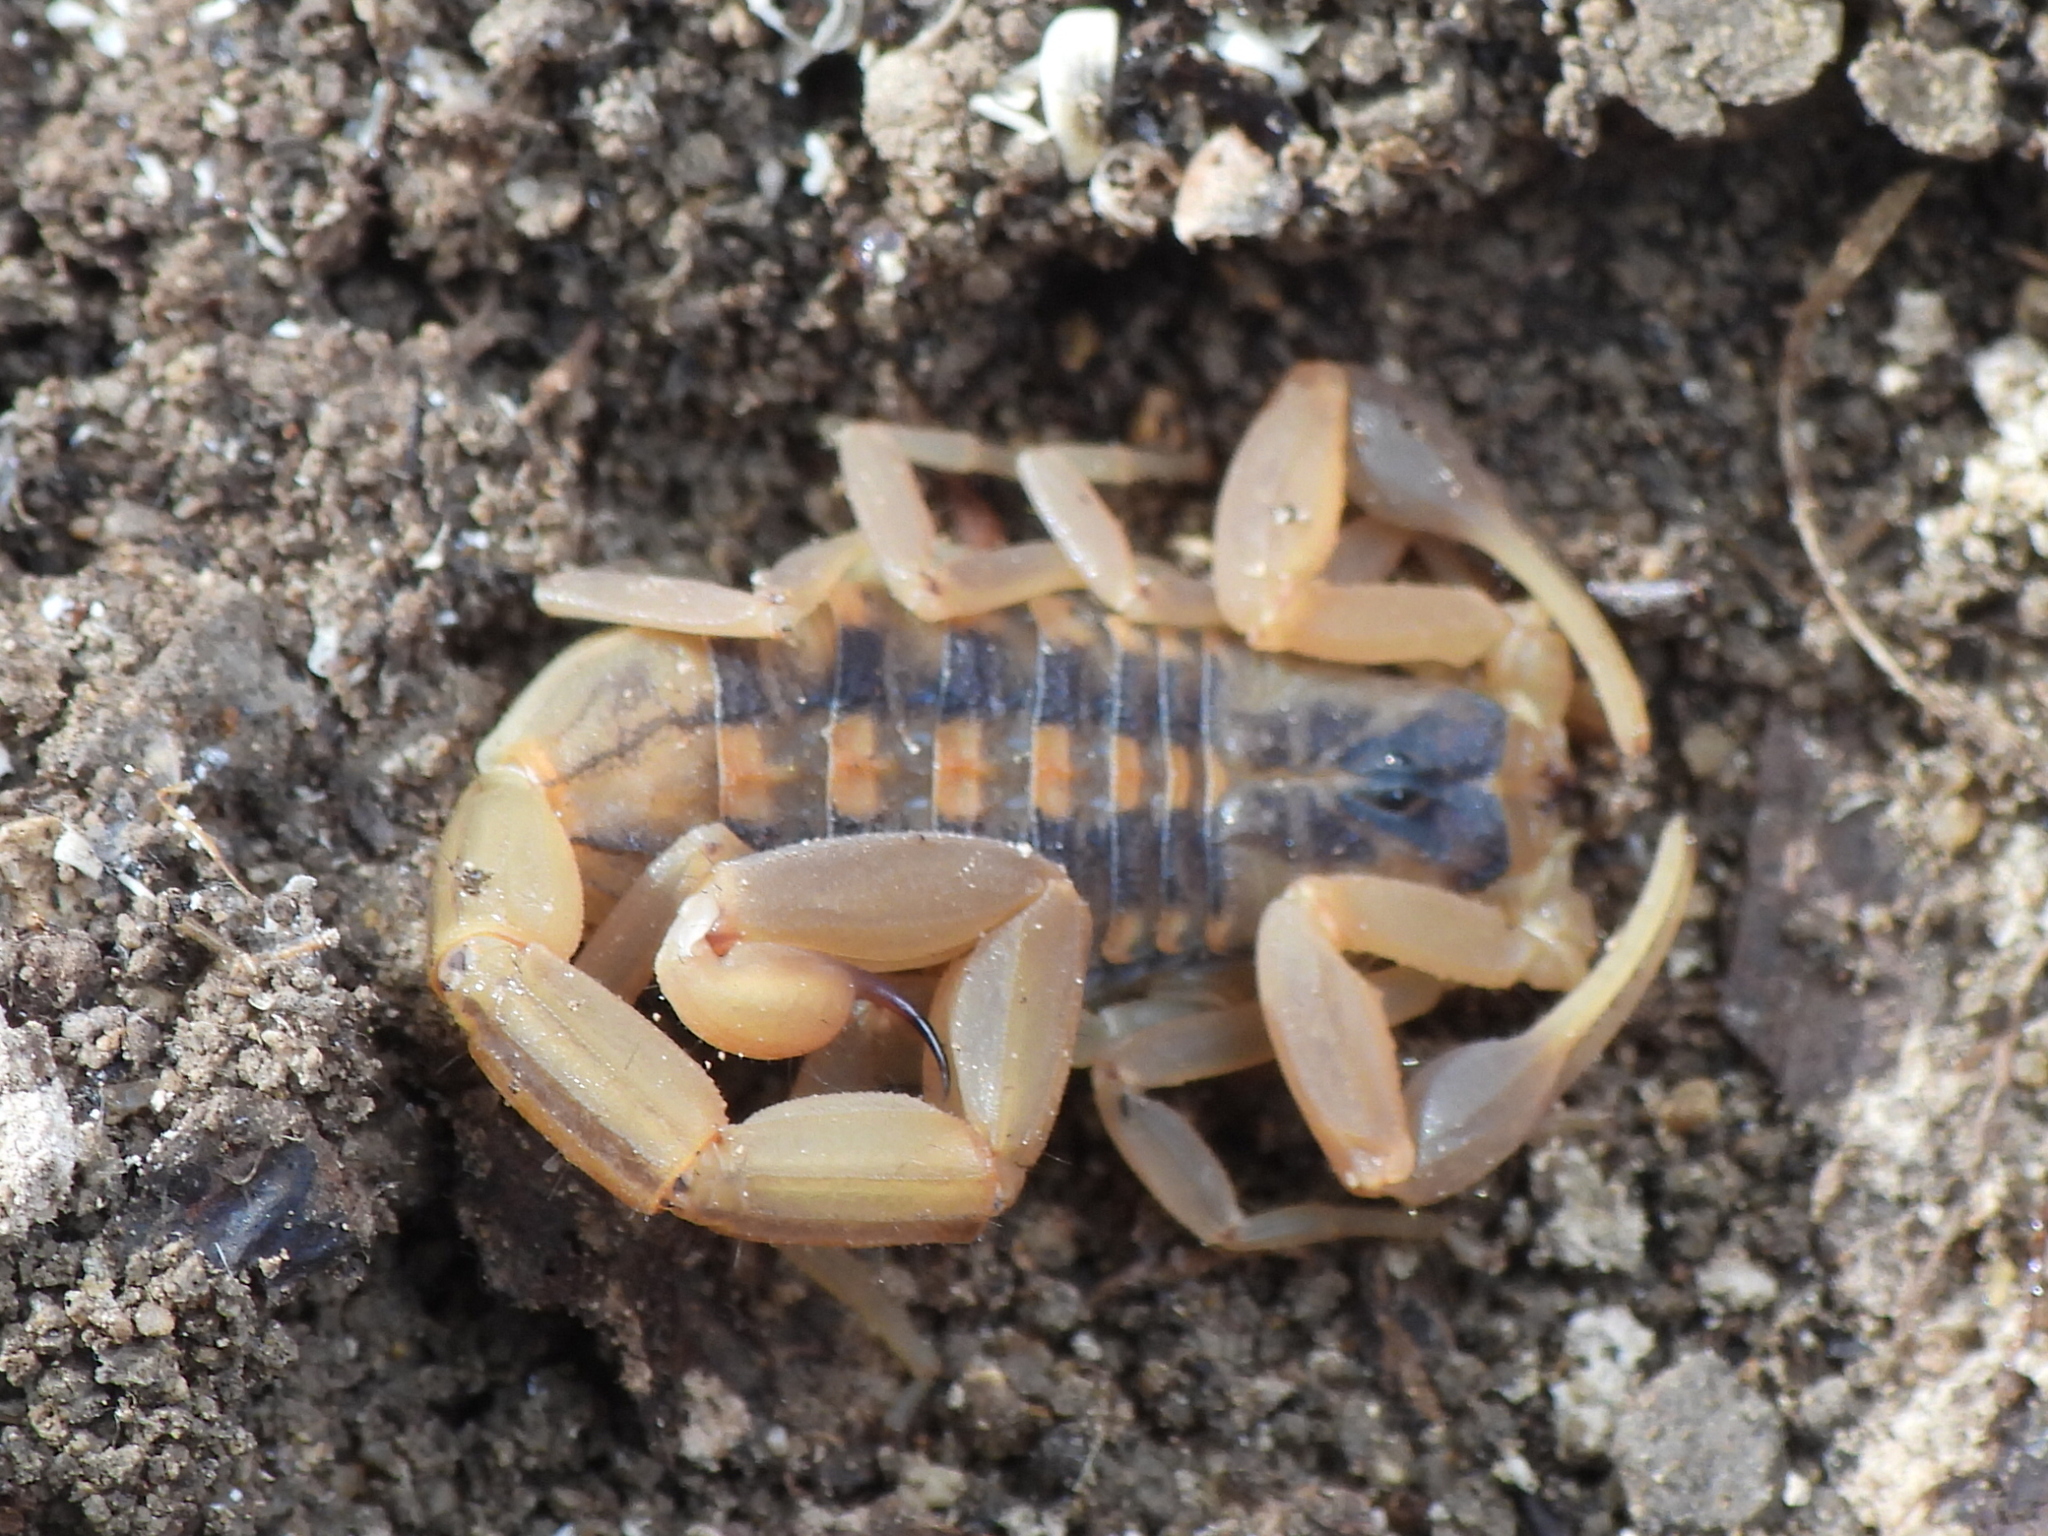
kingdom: Animalia
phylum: Arthropoda
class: Arachnida
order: Scorpiones
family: Buthidae
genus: Centruroides
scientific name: Centruroides vittatus
